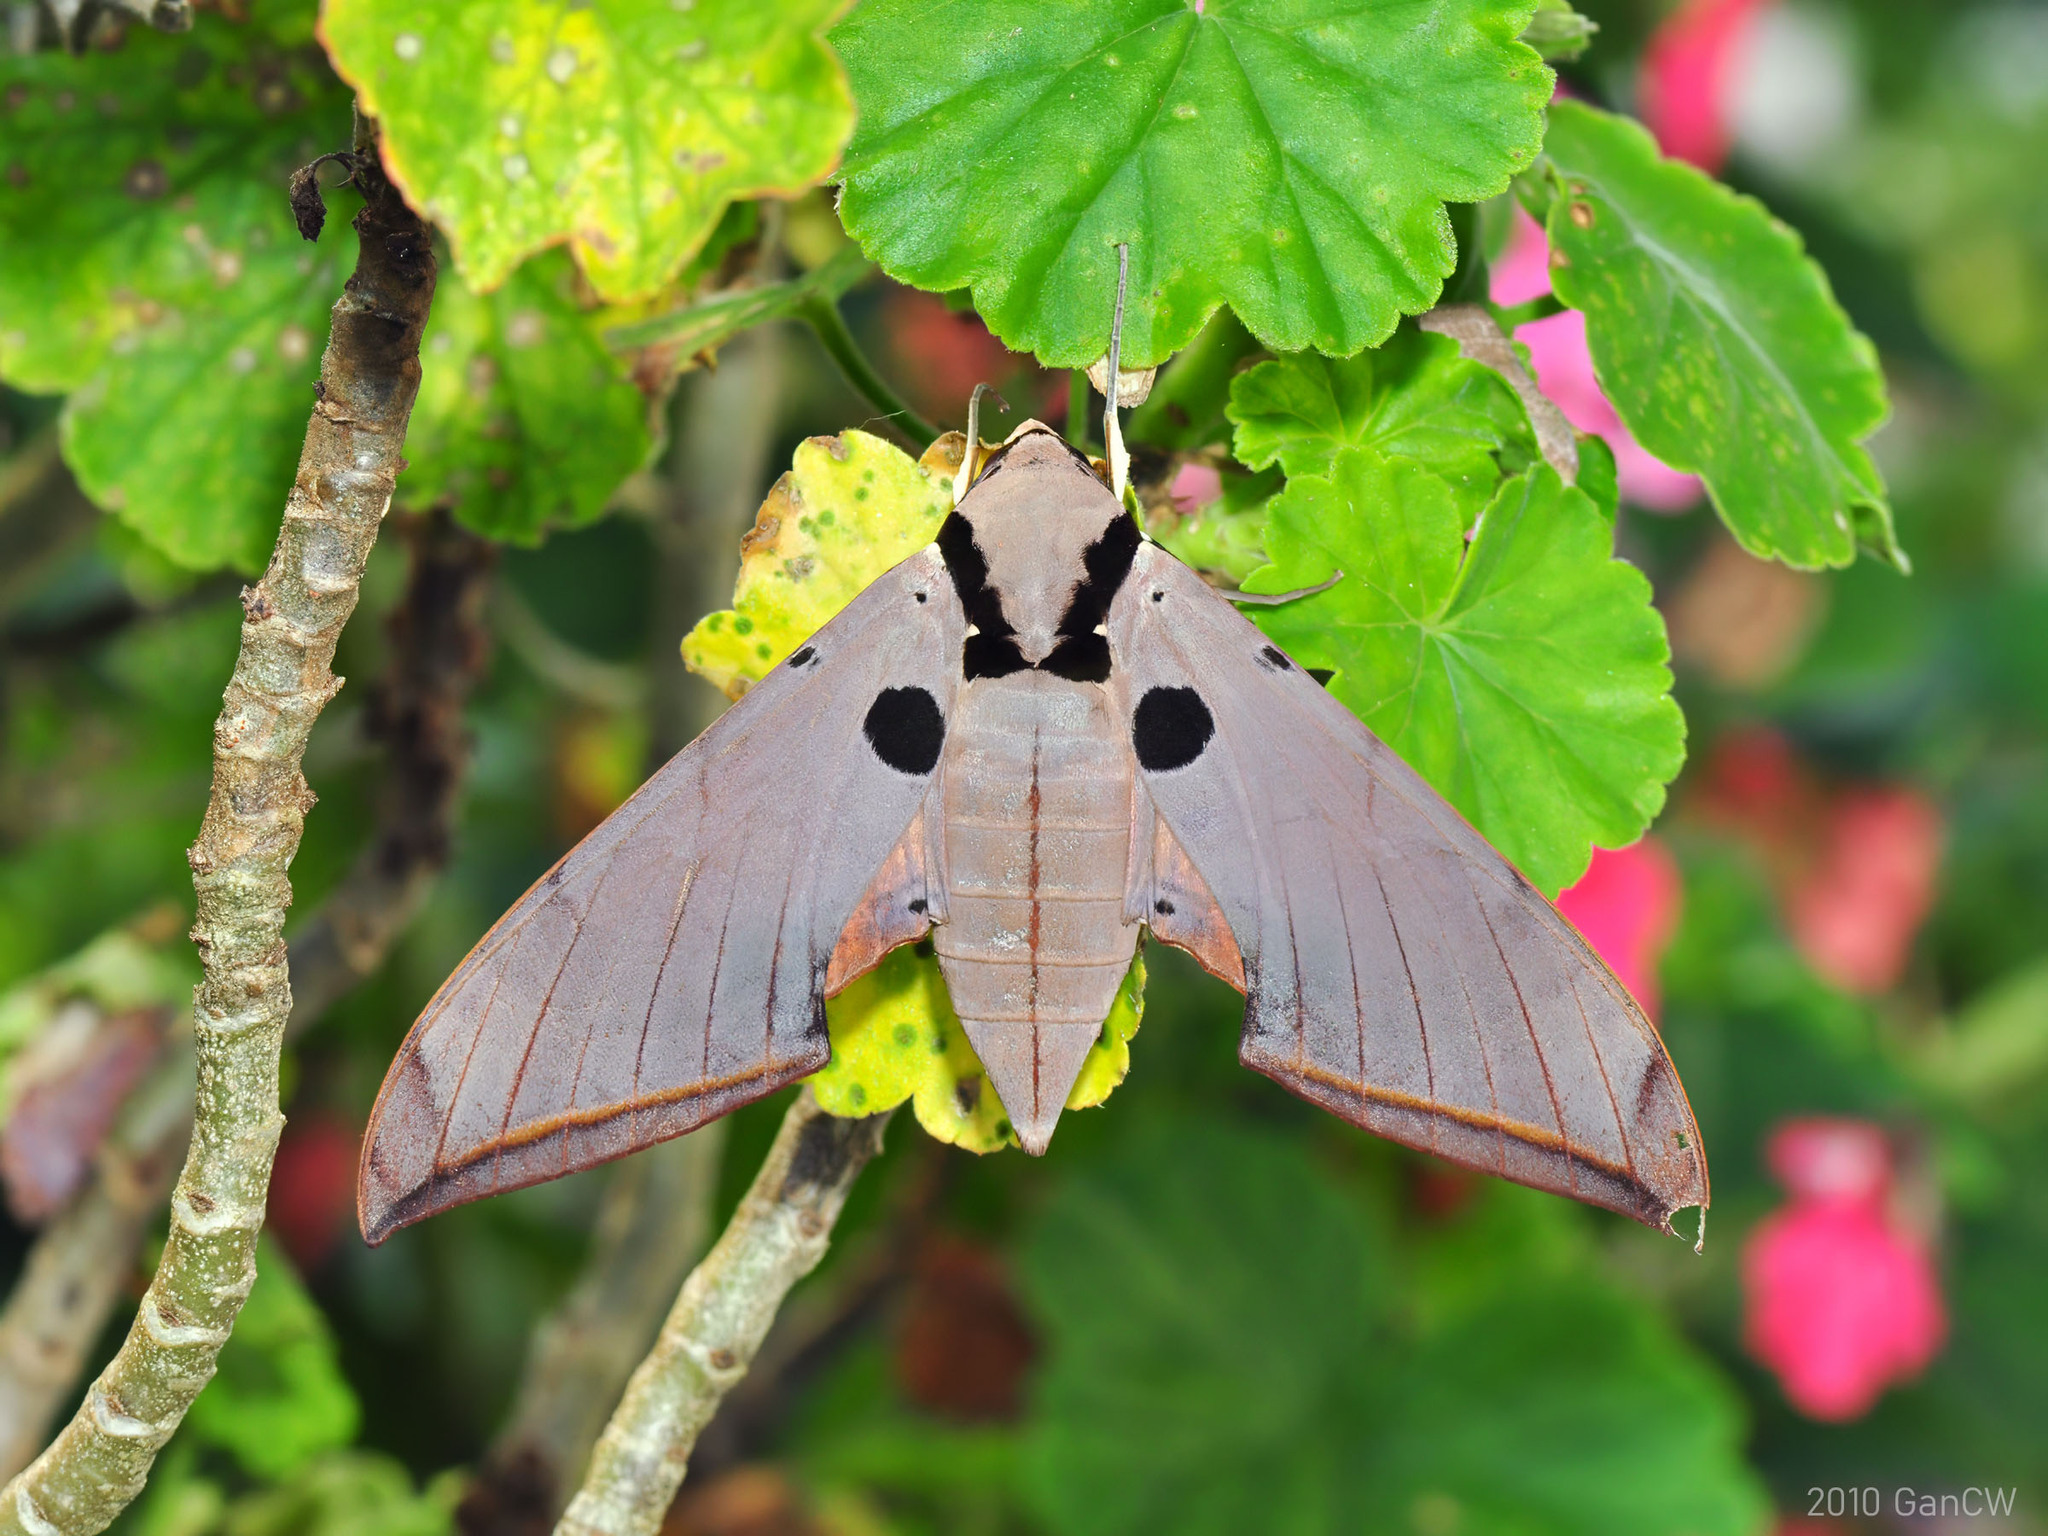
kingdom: Animalia
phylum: Arthropoda
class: Insecta
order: Lepidoptera
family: Sphingidae
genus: Ambulyx
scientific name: Ambulyx obliterata
